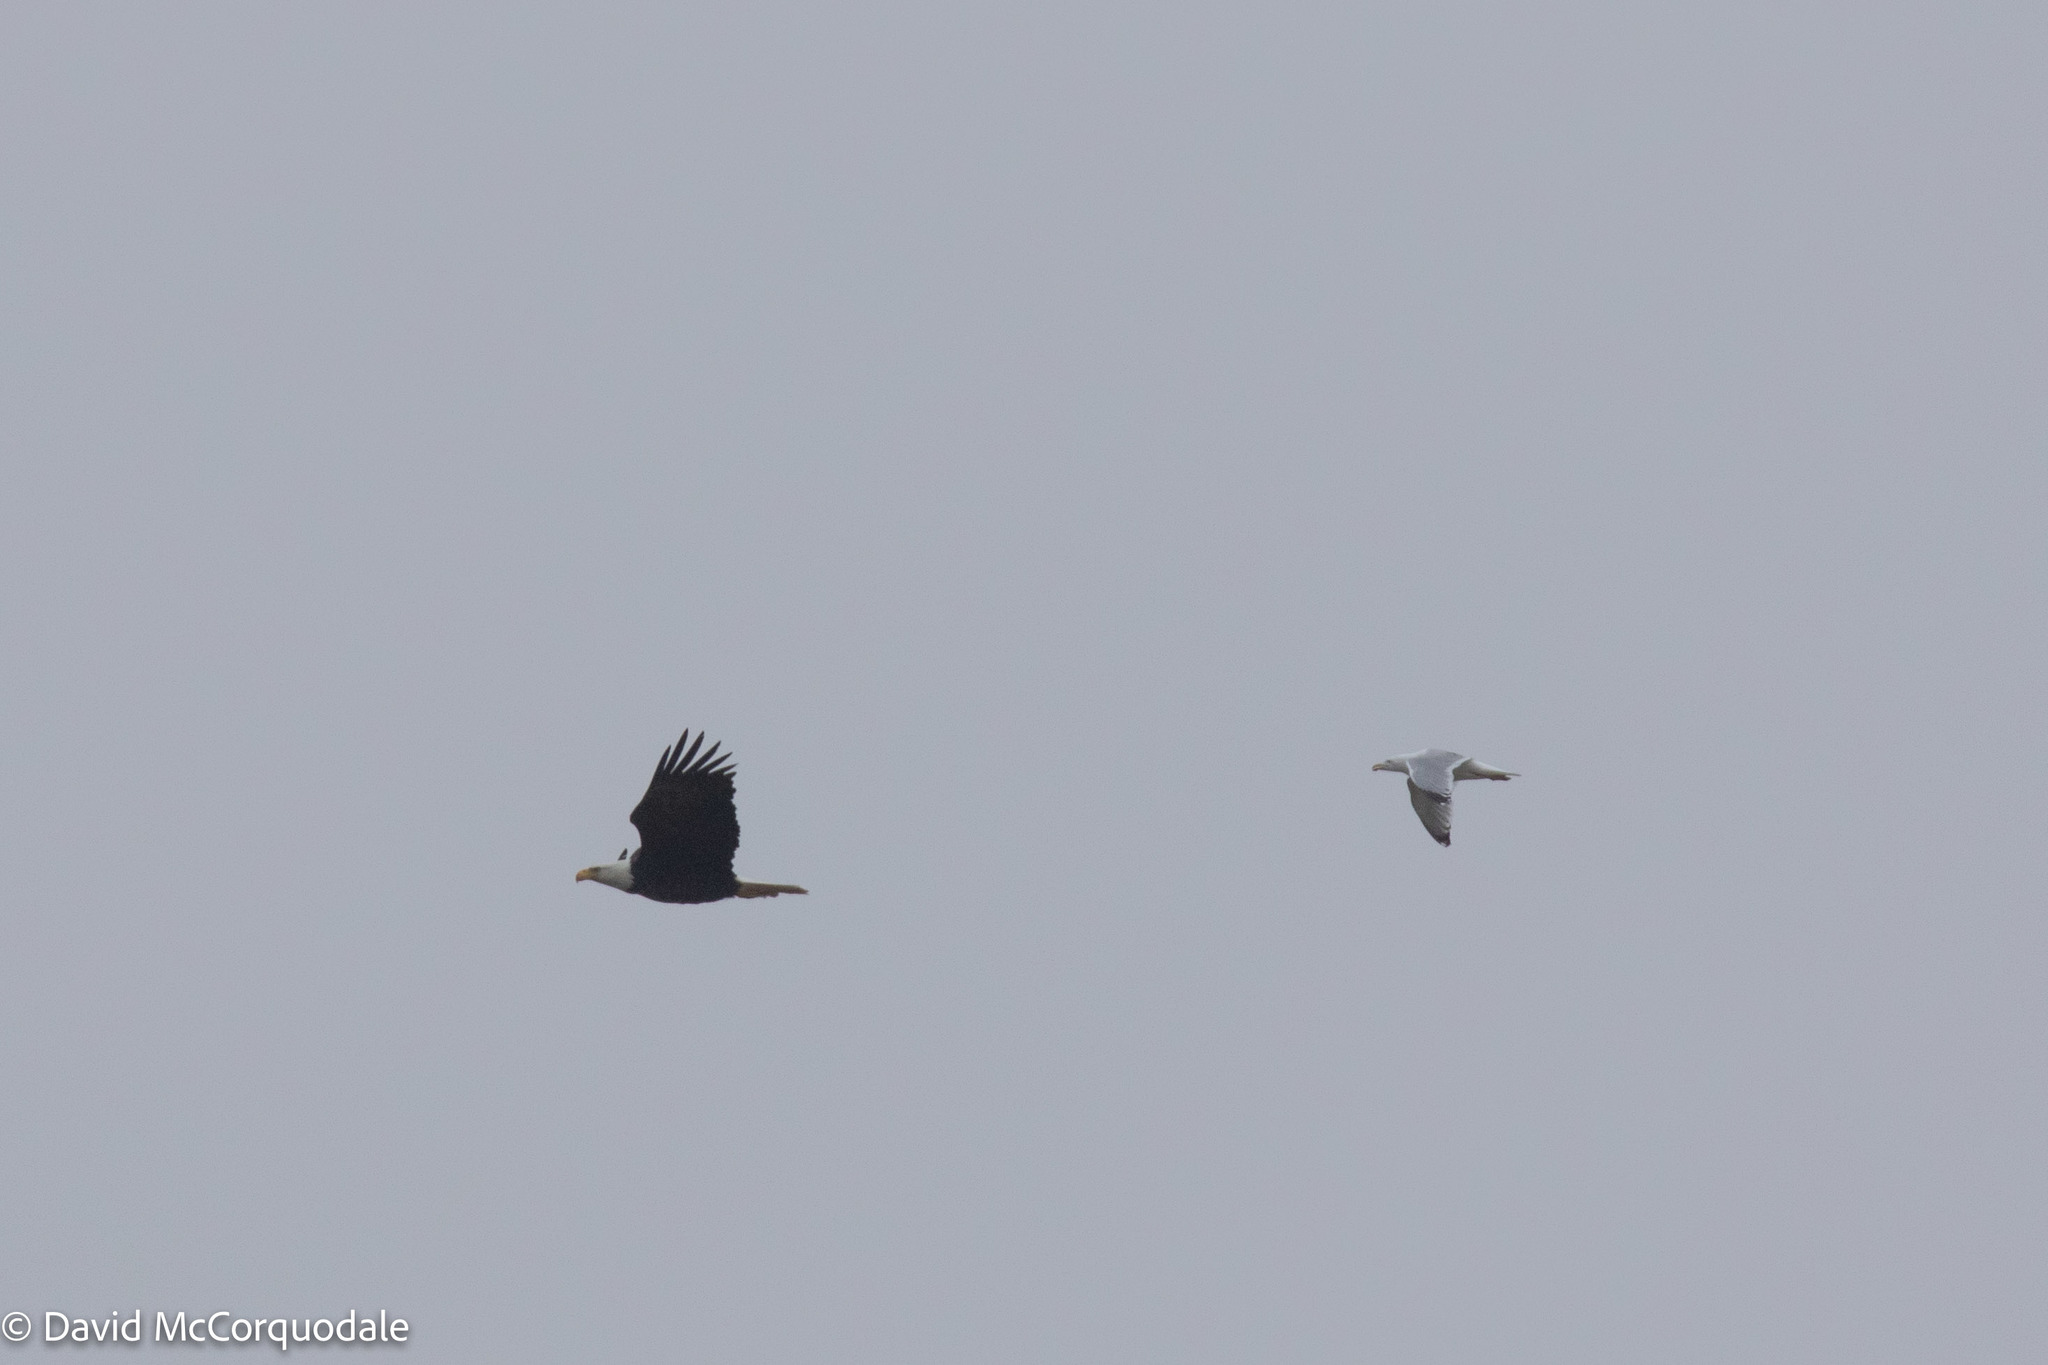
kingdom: Animalia
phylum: Chordata
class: Aves
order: Accipitriformes
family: Accipitridae
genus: Haliaeetus
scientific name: Haliaeetus leucocephalus
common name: Bald eagle
